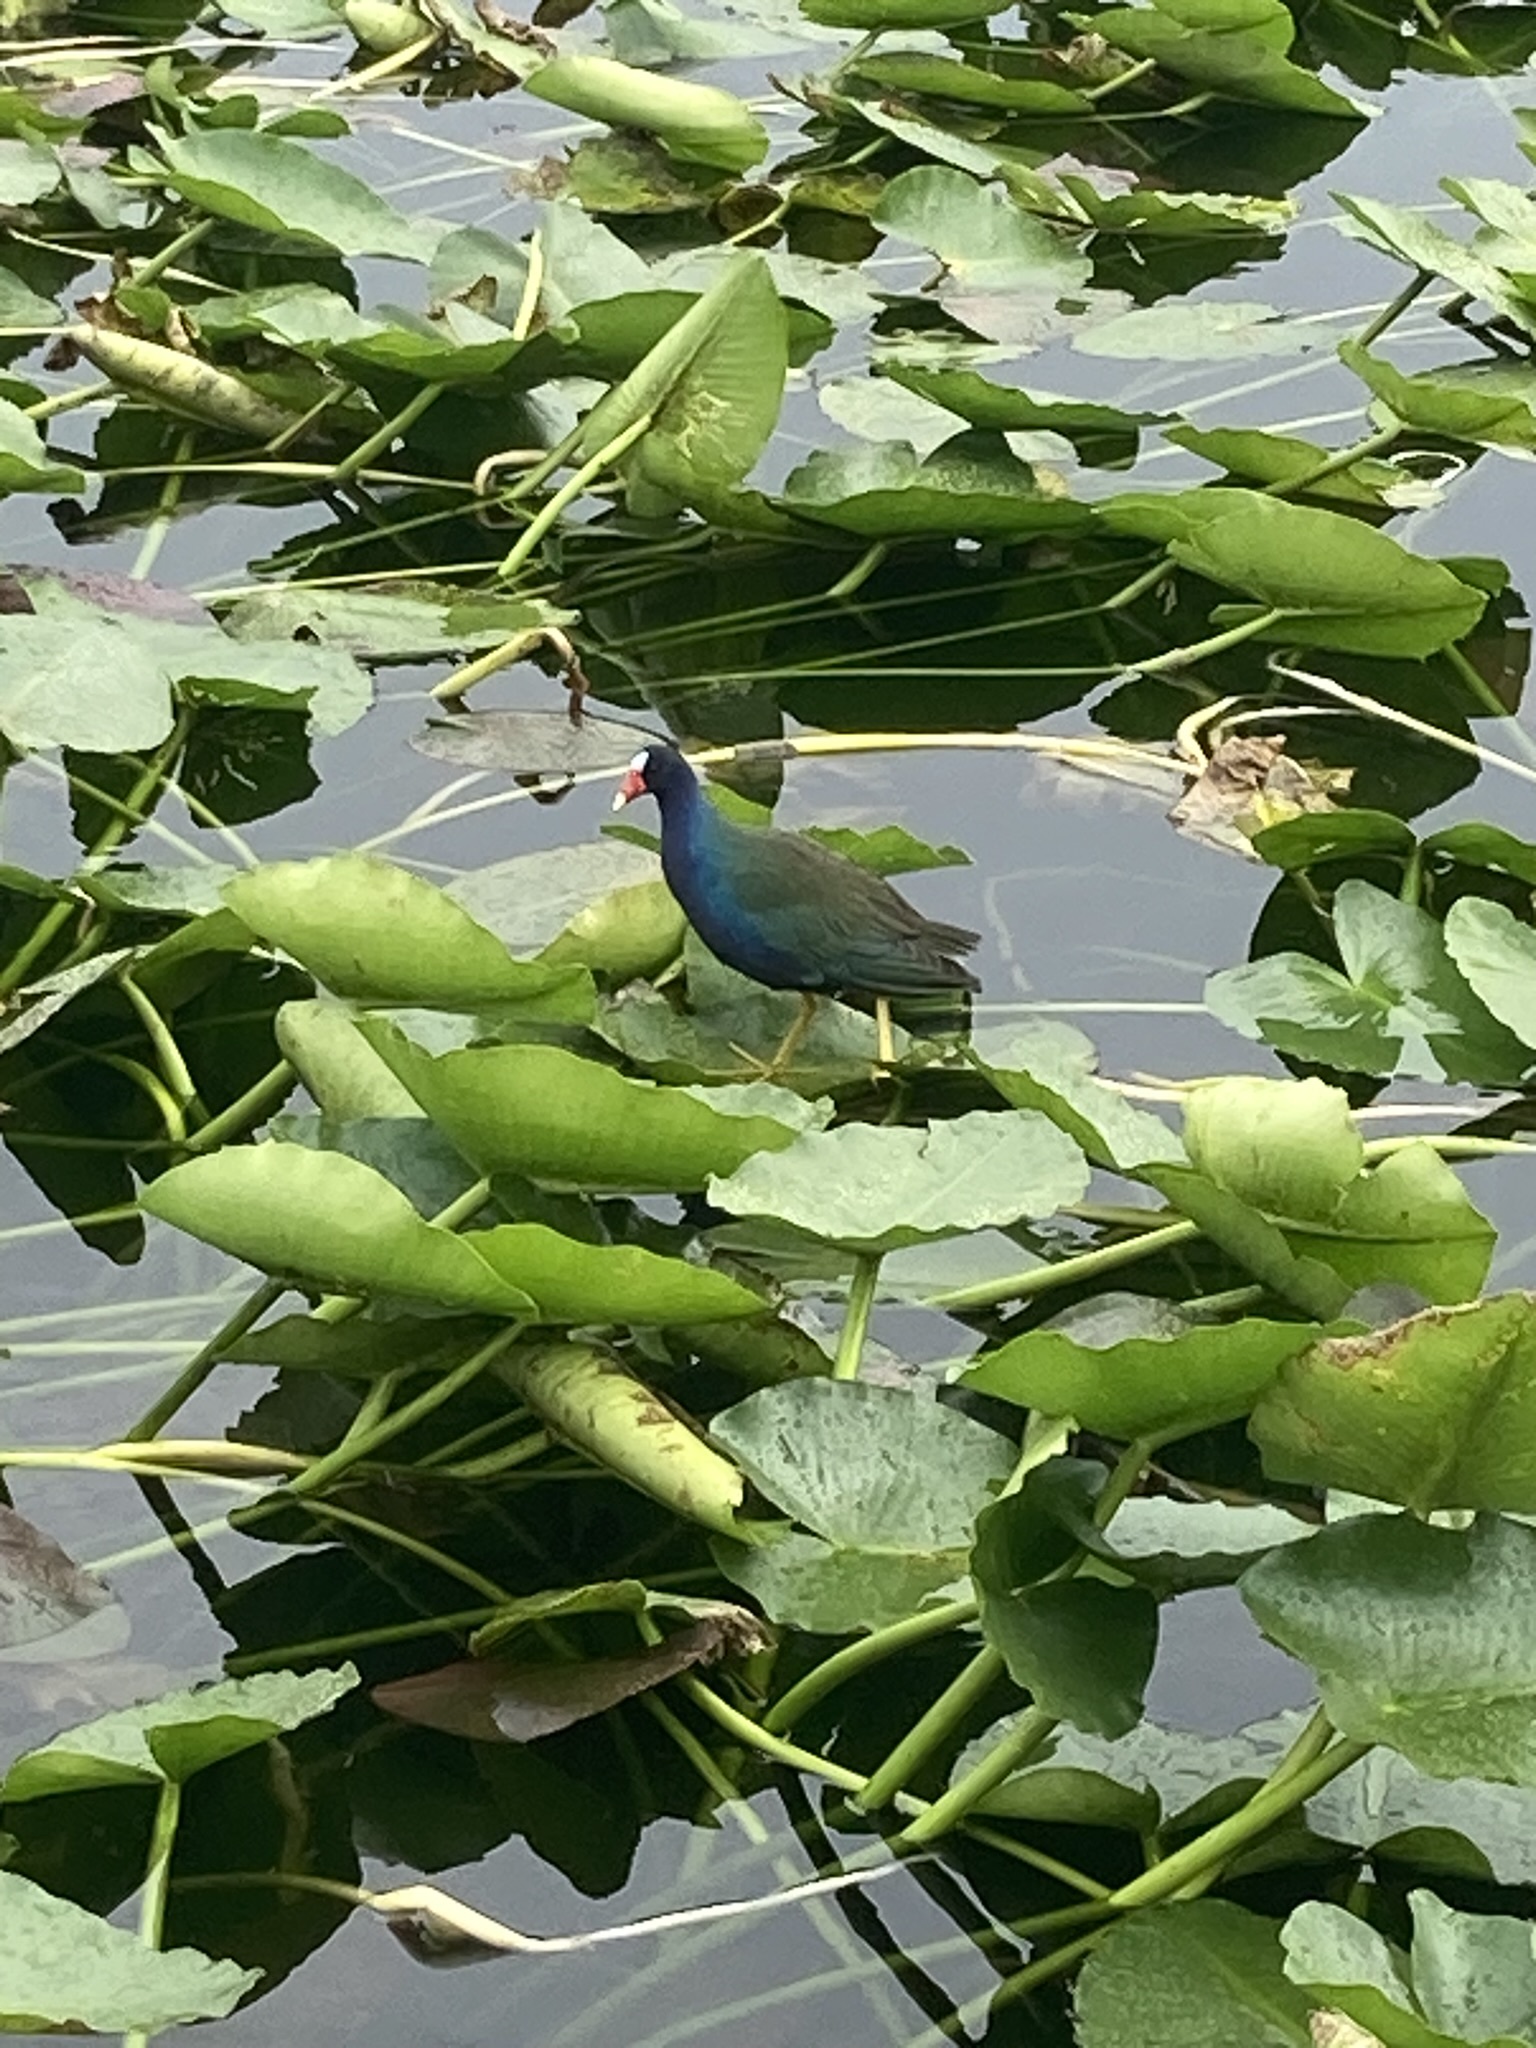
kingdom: Animalia
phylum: Chordata
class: Aves
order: Gruiformes
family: Rallidae
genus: Porphyrio
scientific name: Porphyrio martinica
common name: Purple gallinule
